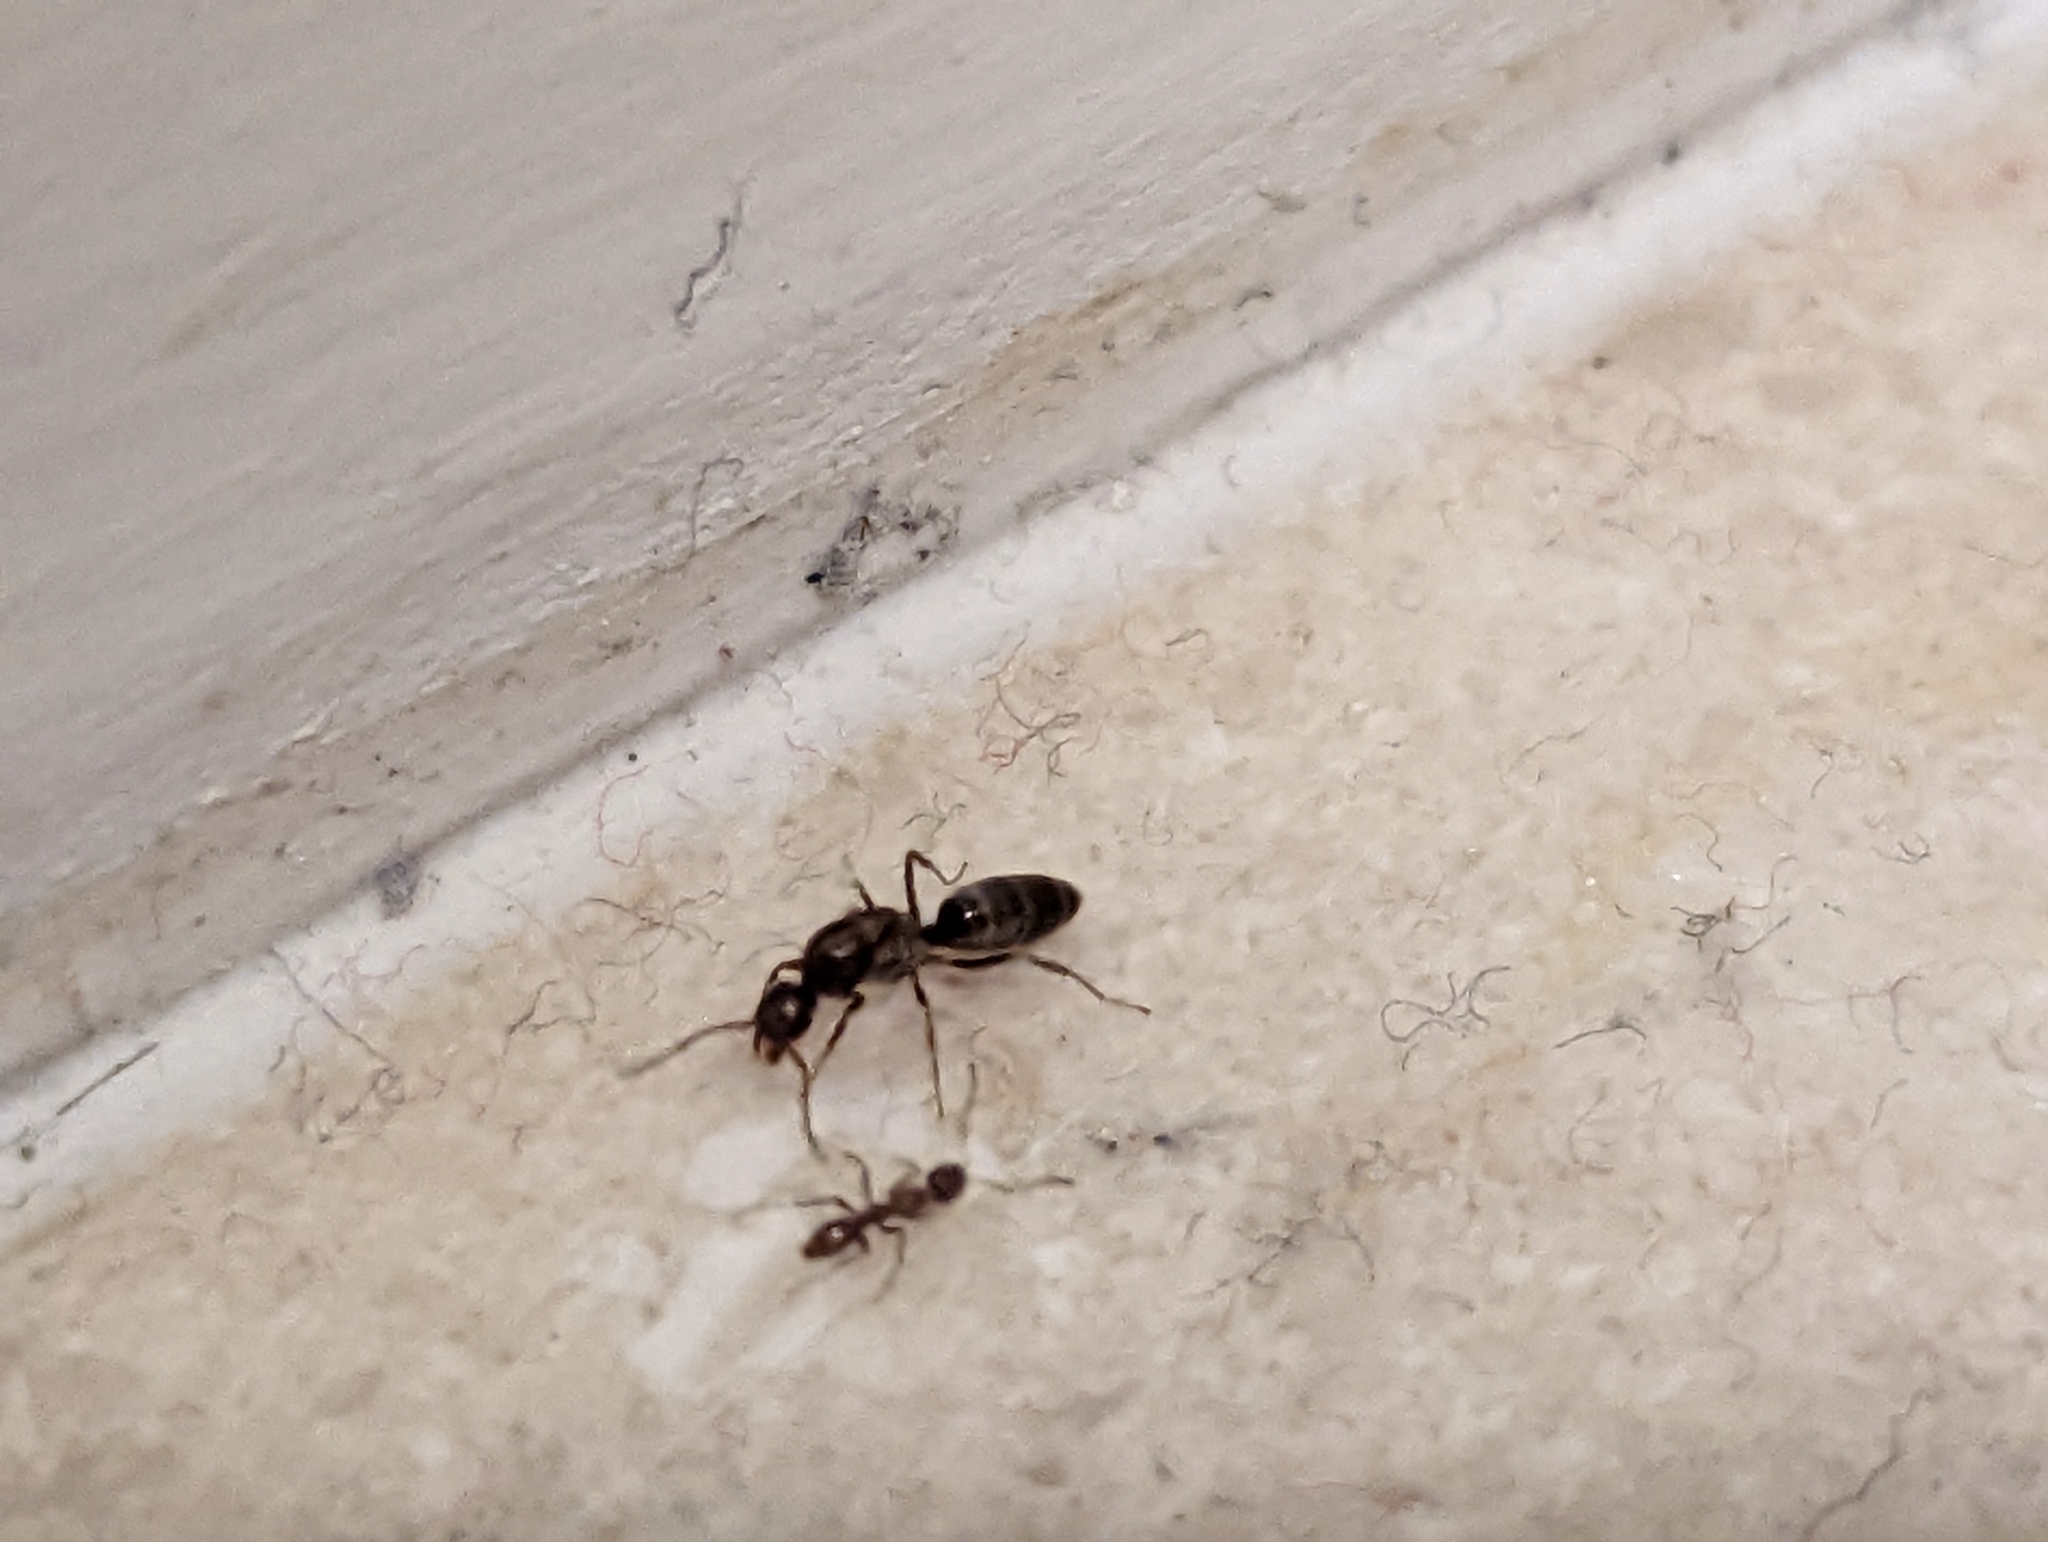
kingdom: Animalia
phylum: Arthropoda
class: Insecta
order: Hymenoptera
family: Formicidae
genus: Linepithema
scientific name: Linepithema humile
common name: Argentine ant
